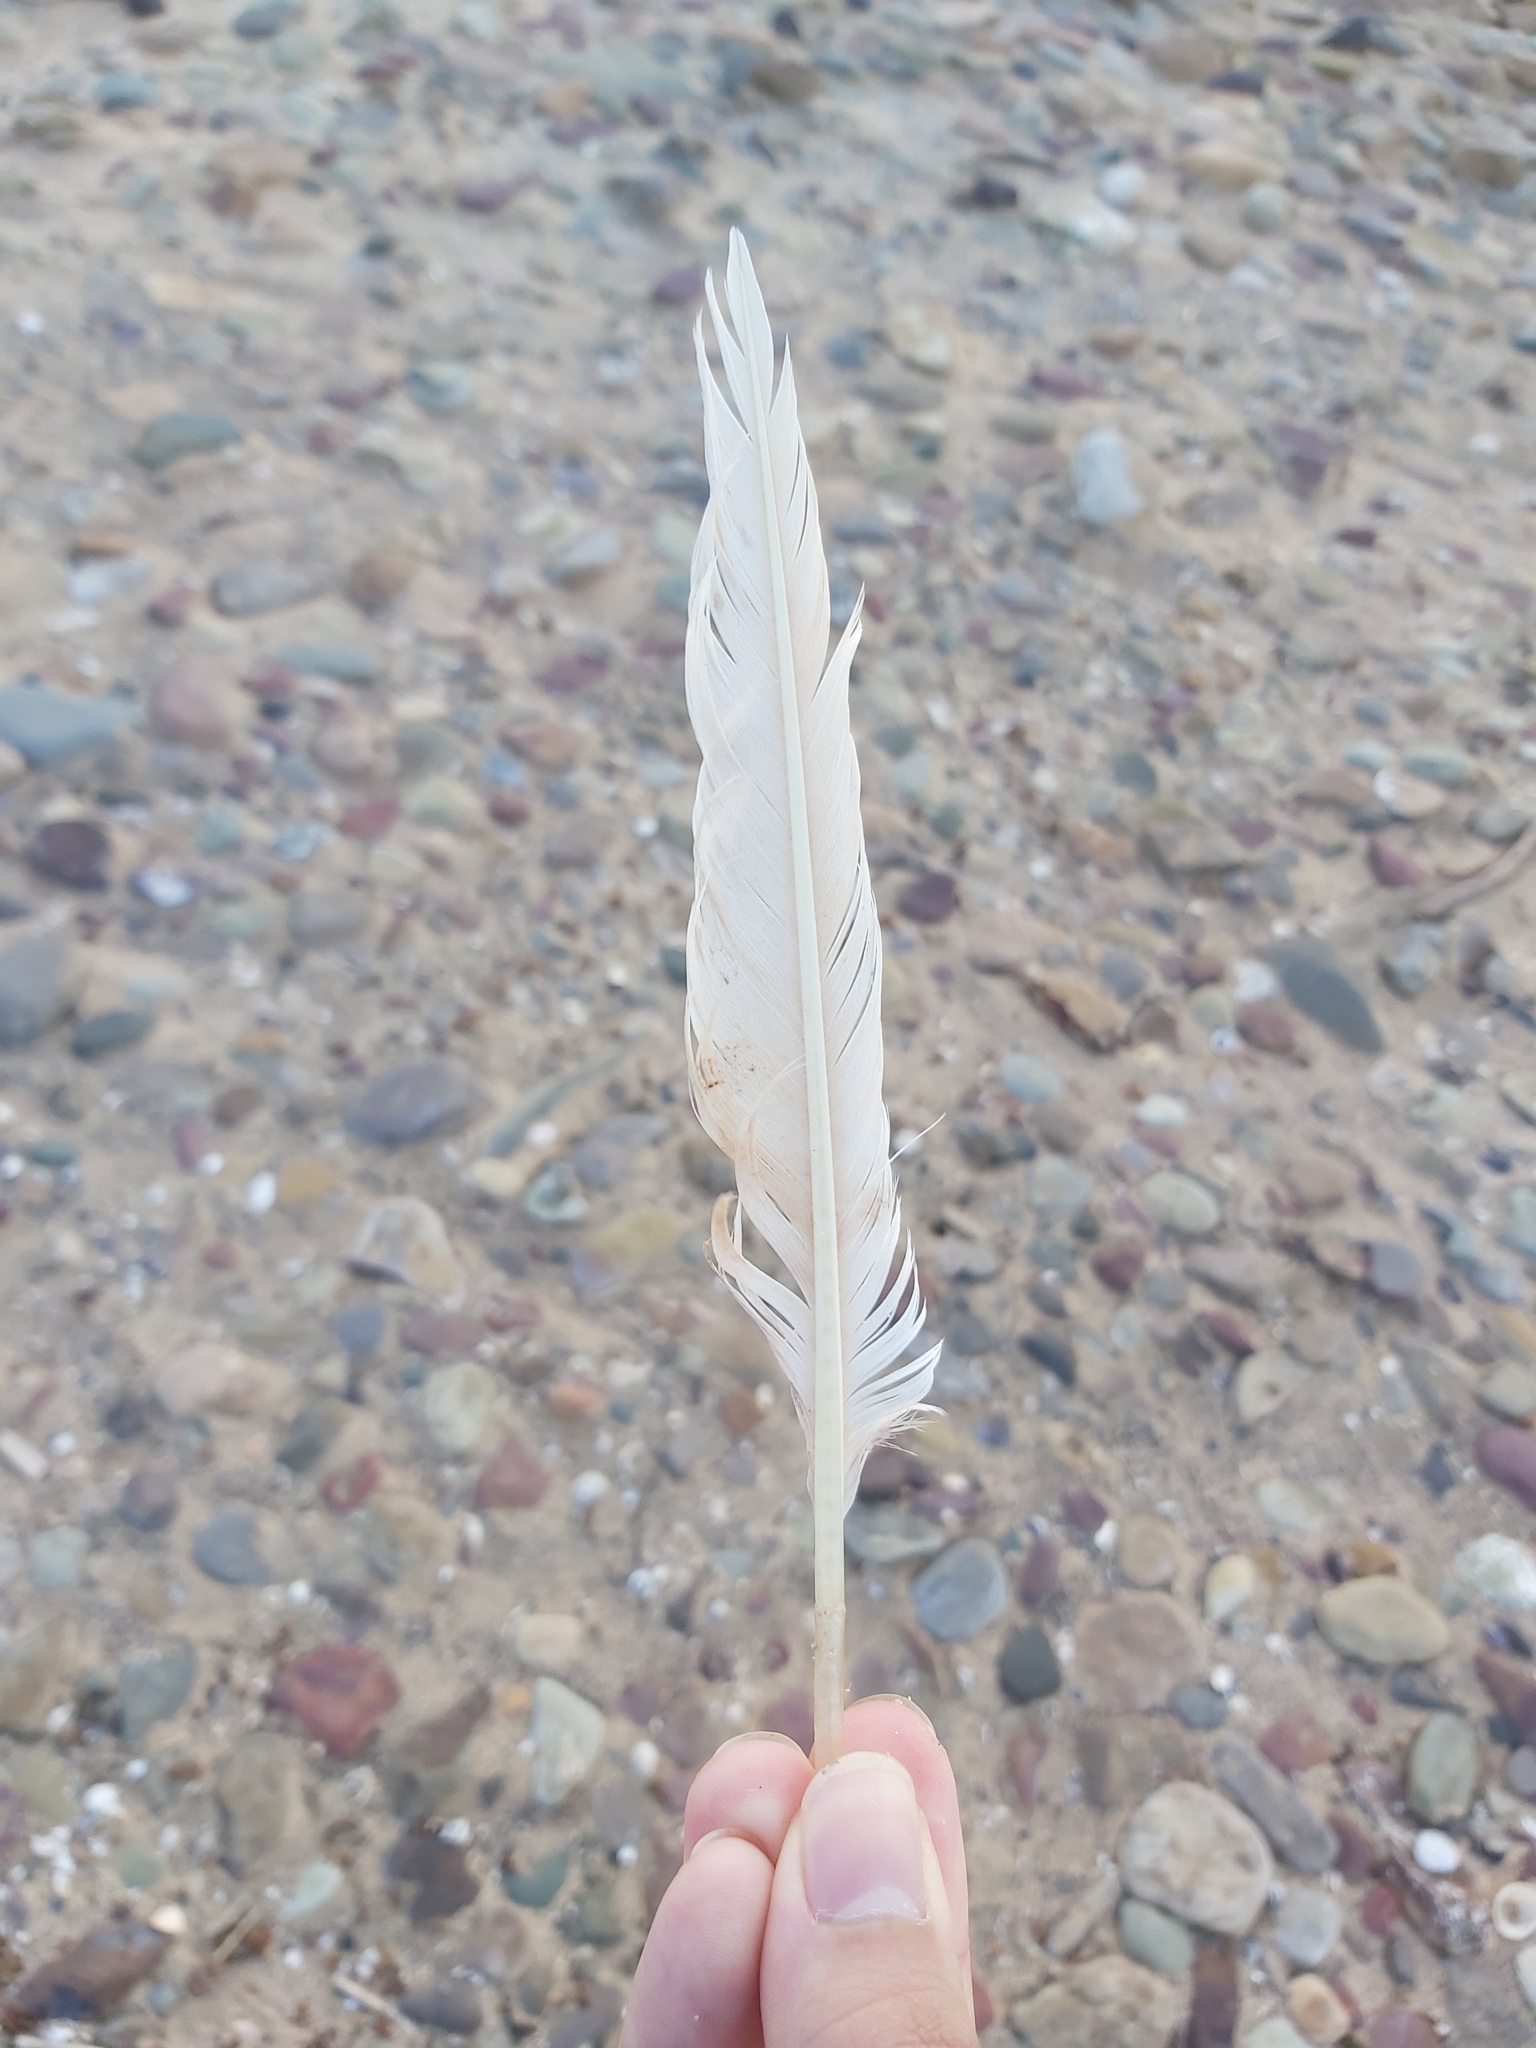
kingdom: Animalia
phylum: Chordata
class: Aves
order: Suliformes
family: Sulidae
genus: Morus
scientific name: Morus serrator
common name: Australasian gannet
